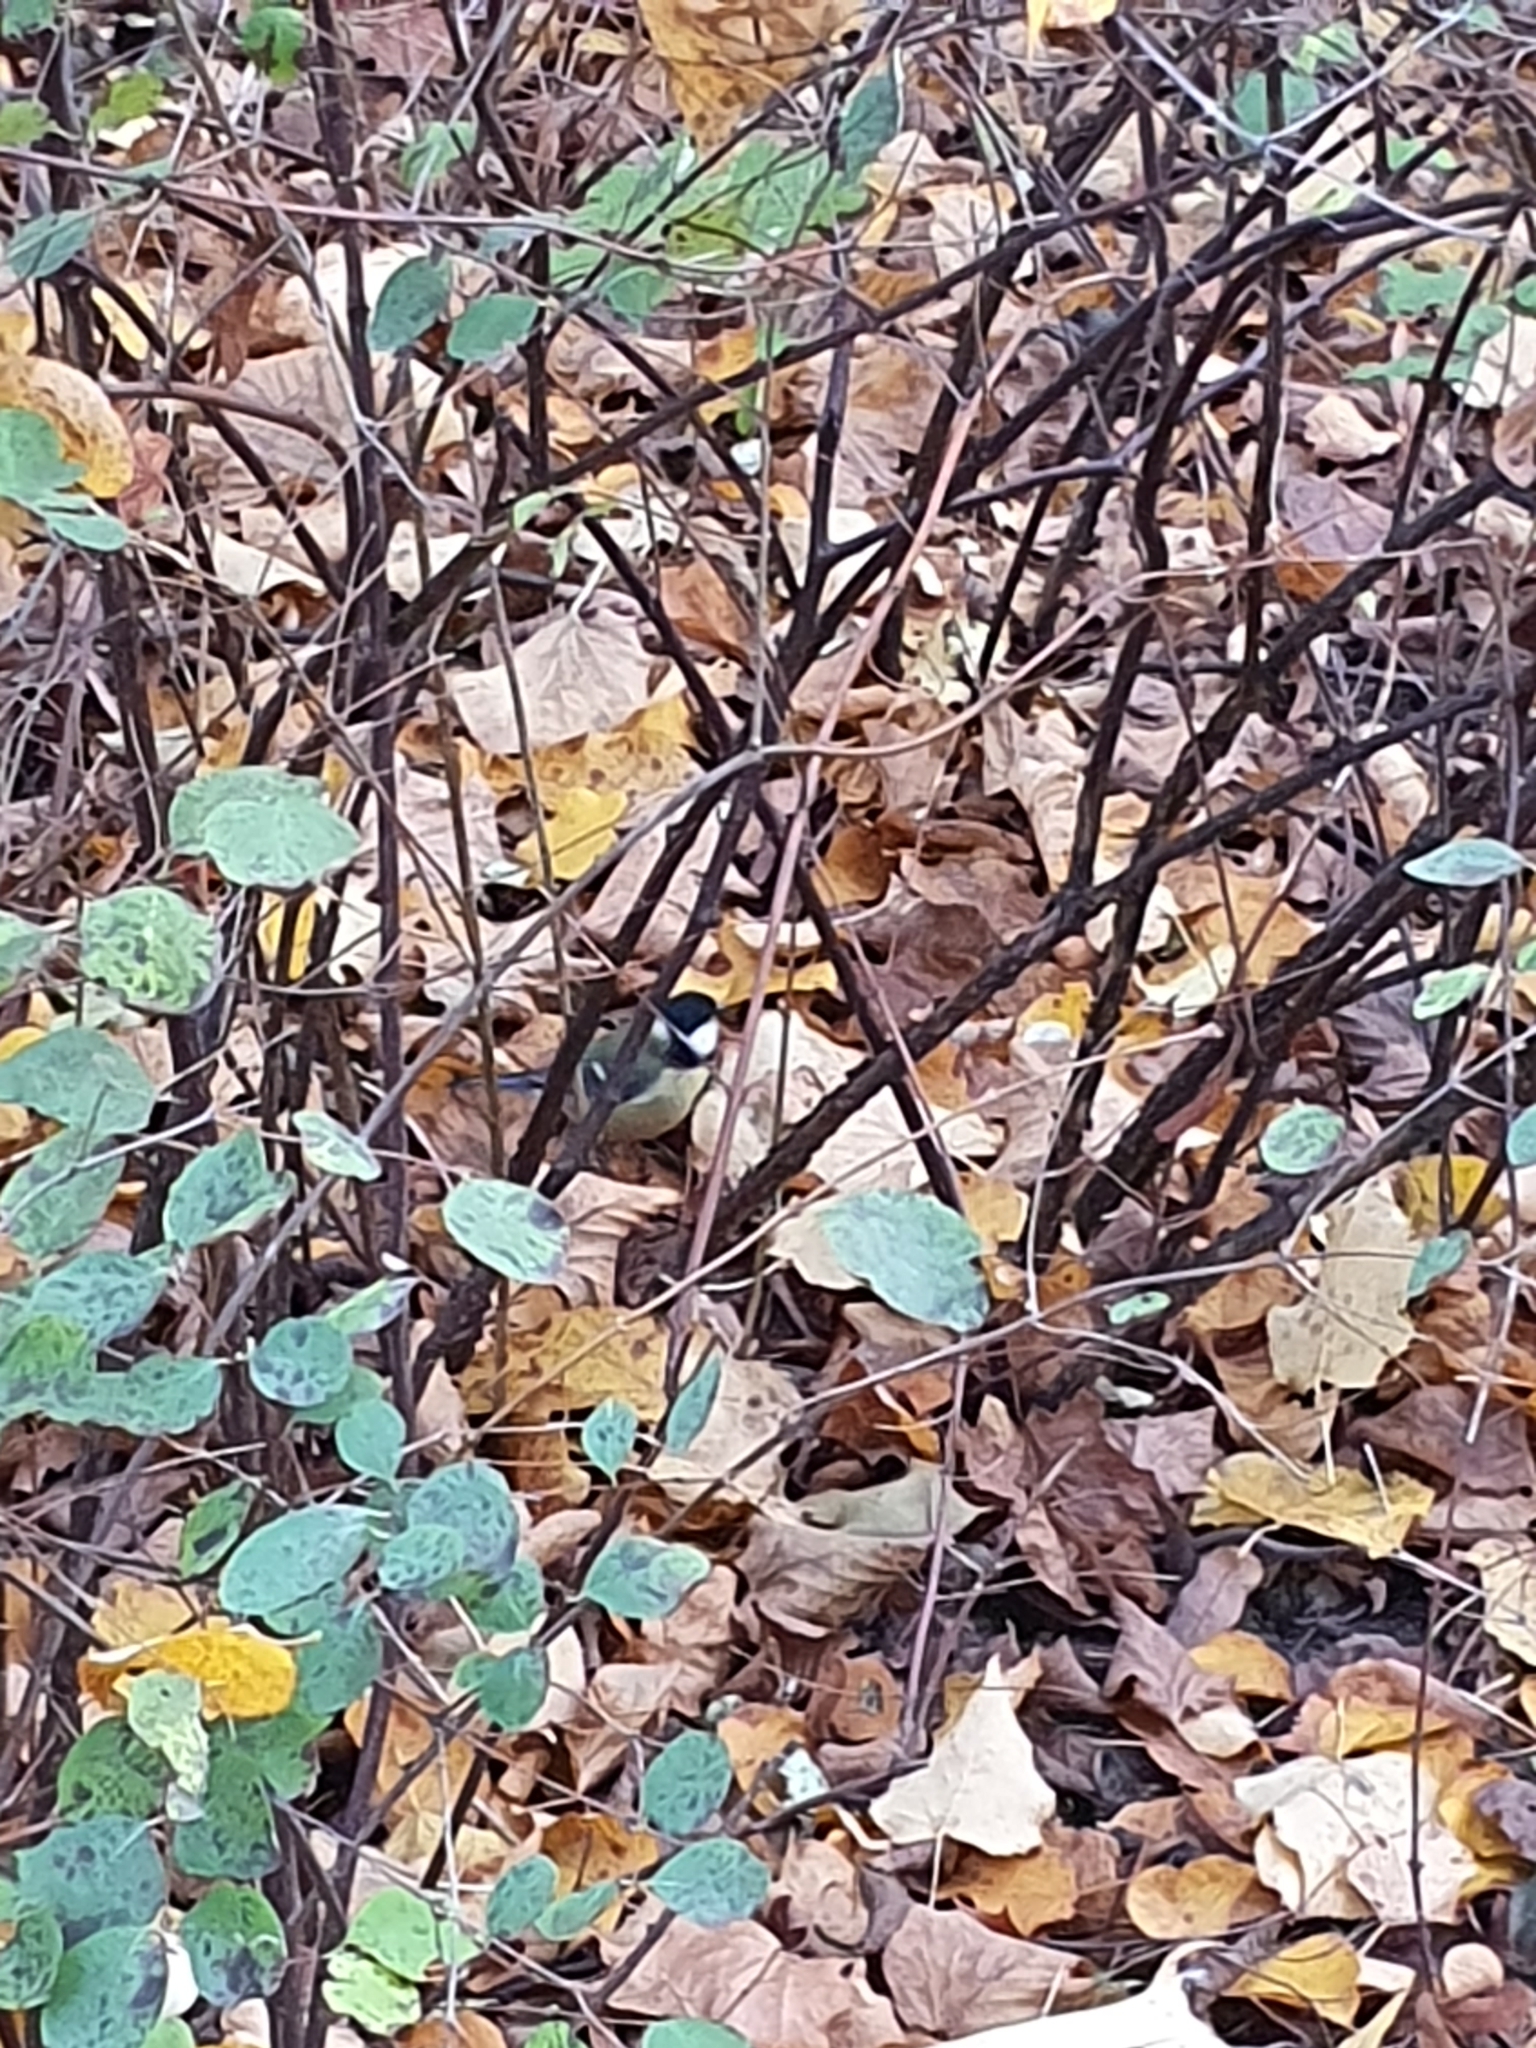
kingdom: Animalia
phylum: Chordata
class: Aves
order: Passeriformes
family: Paridae
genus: Parus
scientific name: Parus major
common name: Great tit
